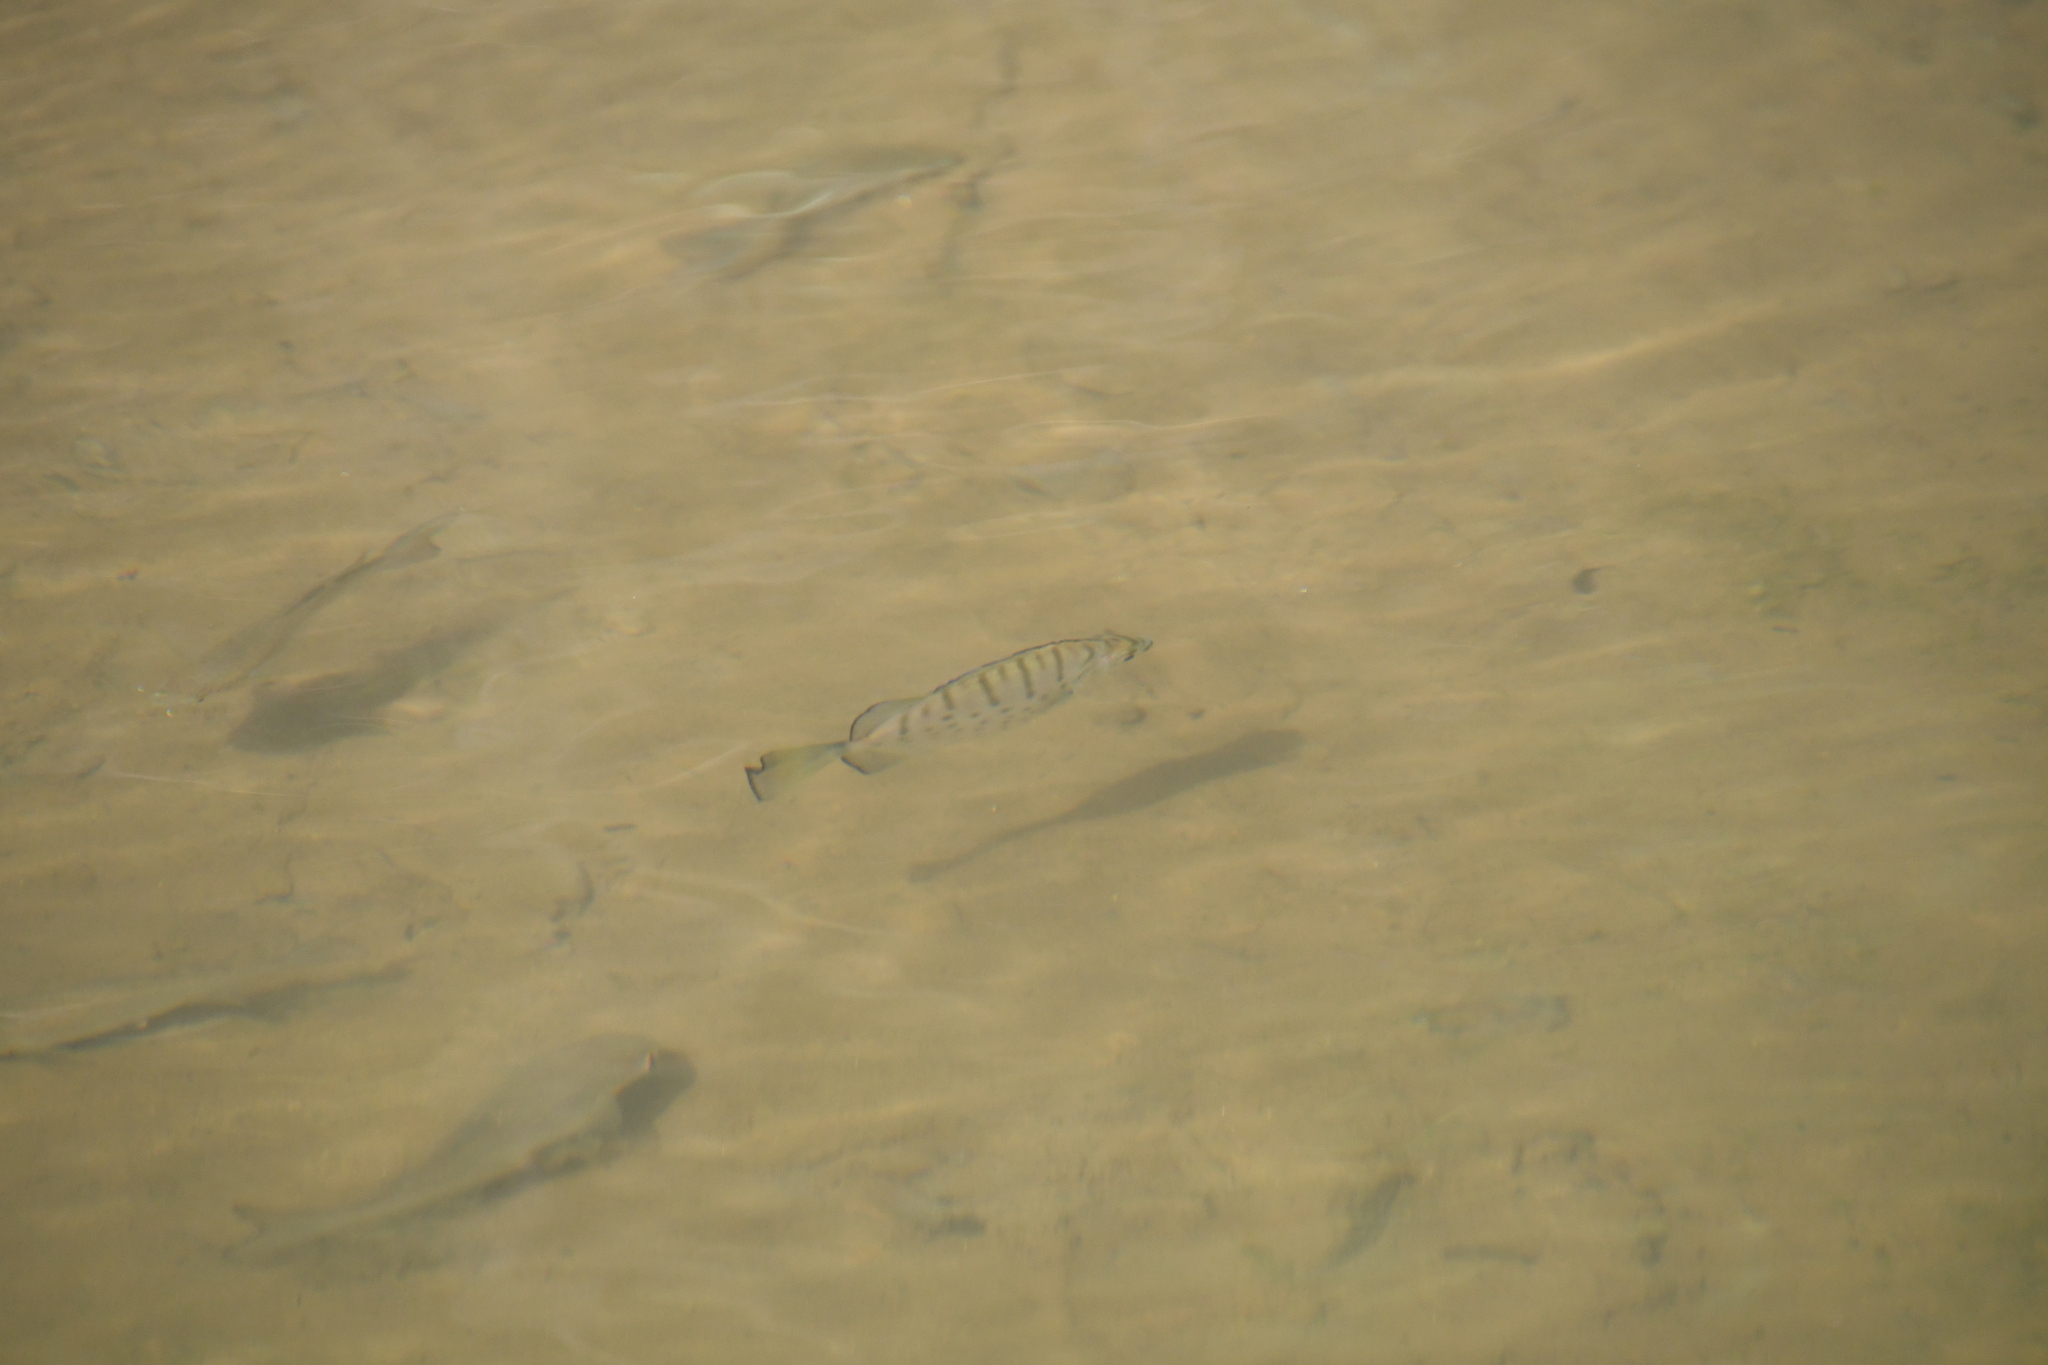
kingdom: Animalia
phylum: Chordata
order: Perciformes
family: Scatophagidae
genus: Selenotoca
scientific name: Selenotoca multifasciata
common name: Striped scat
